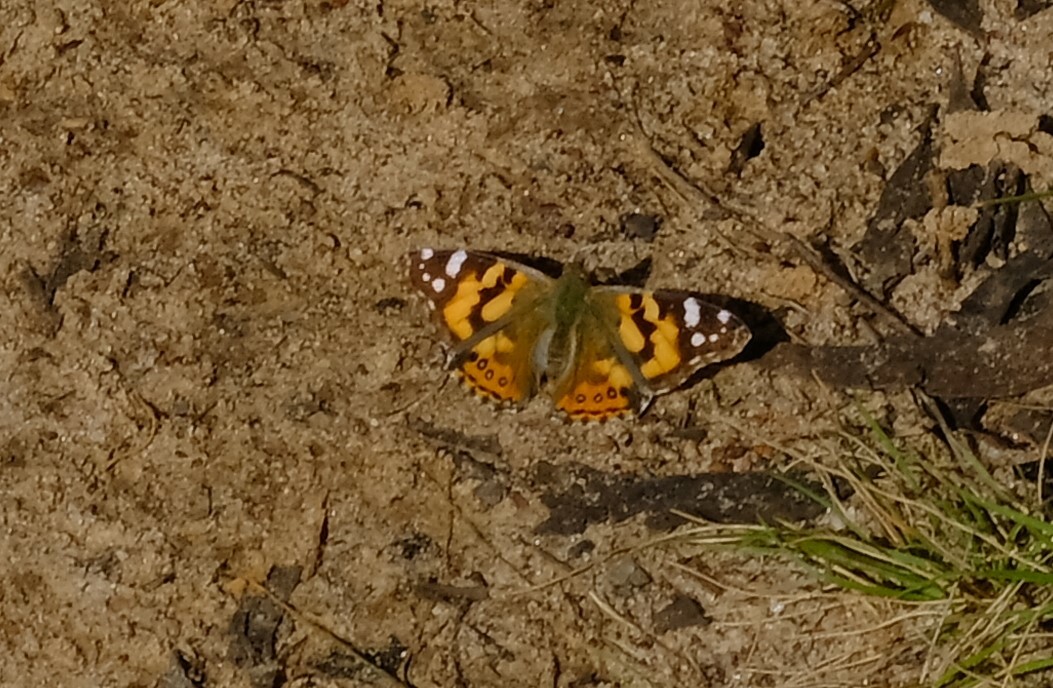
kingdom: Animalia
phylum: Arthropoda
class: Insecta
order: Lepidoptera
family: Nymphalidae
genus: Vanessa
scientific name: Vanessa kershawi
